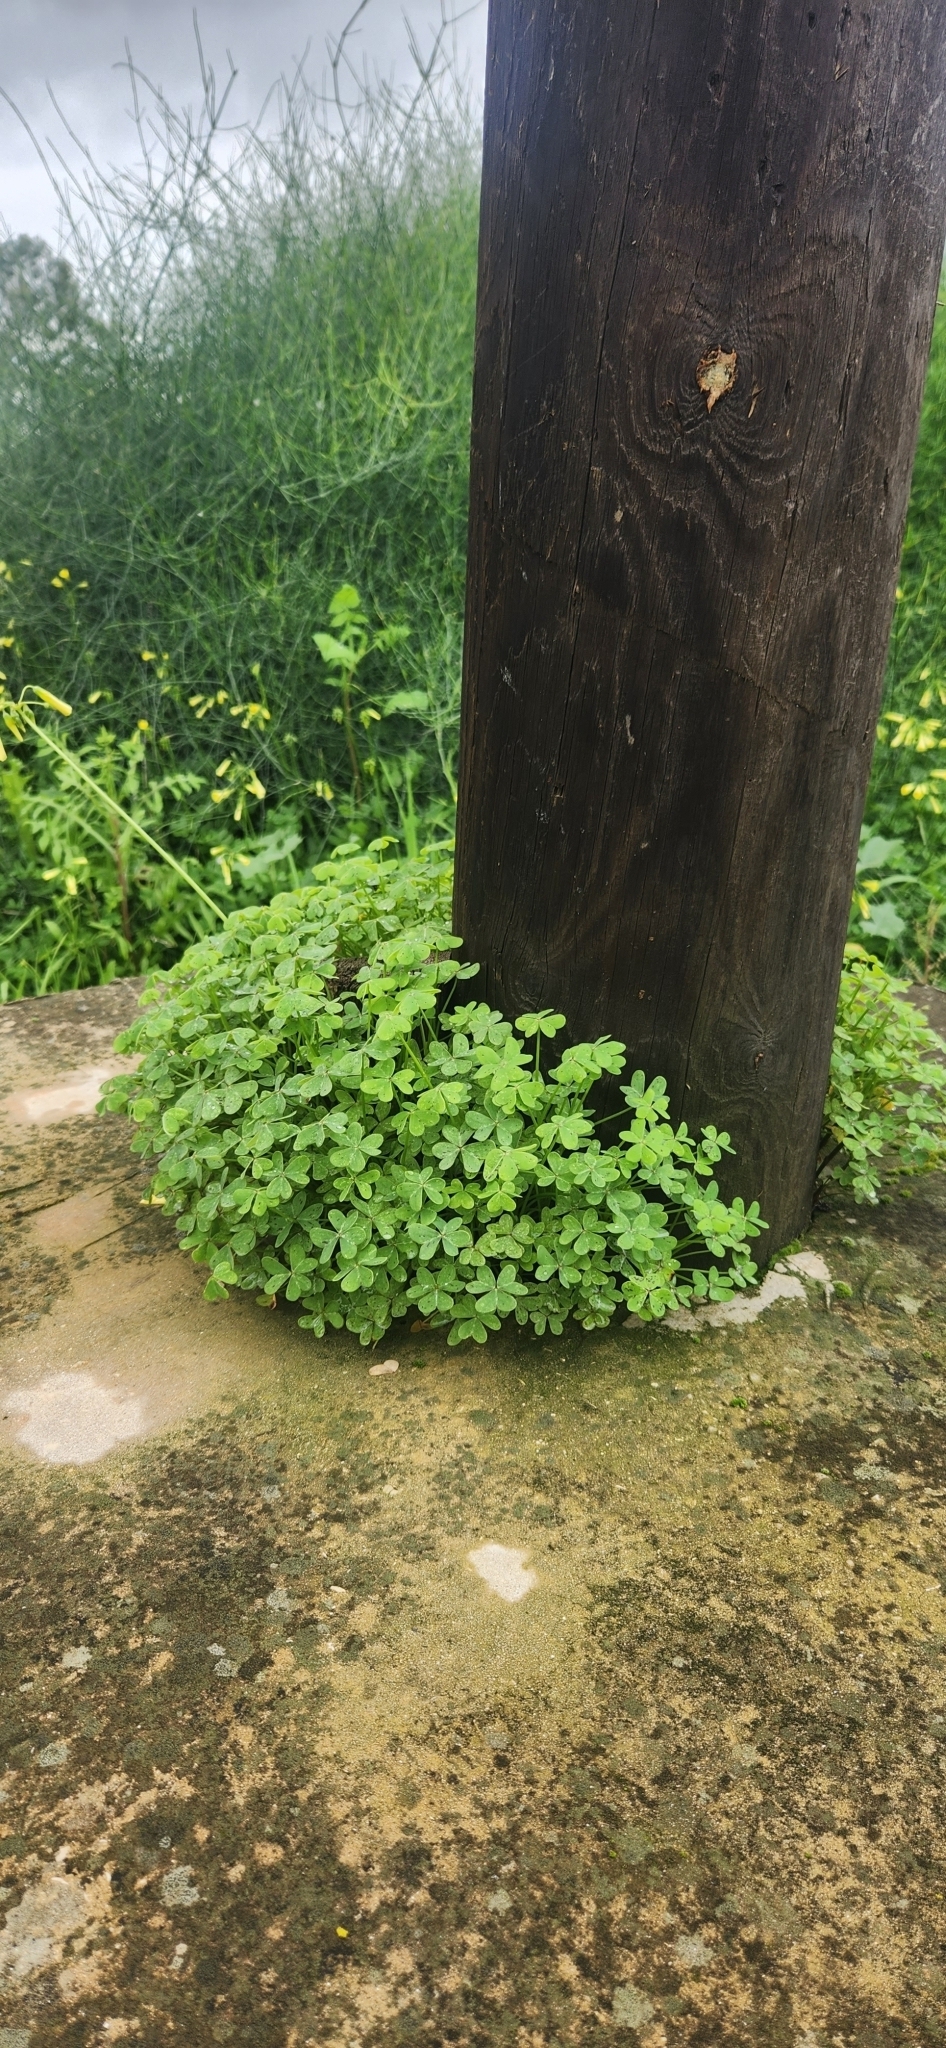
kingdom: Plantae
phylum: Tracheophyta
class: Magnoliopsida
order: Oxalidales
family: Oxalidaceae
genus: Oxalis
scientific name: Oxalis pes-caprae
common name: Bermuda-buttercup
